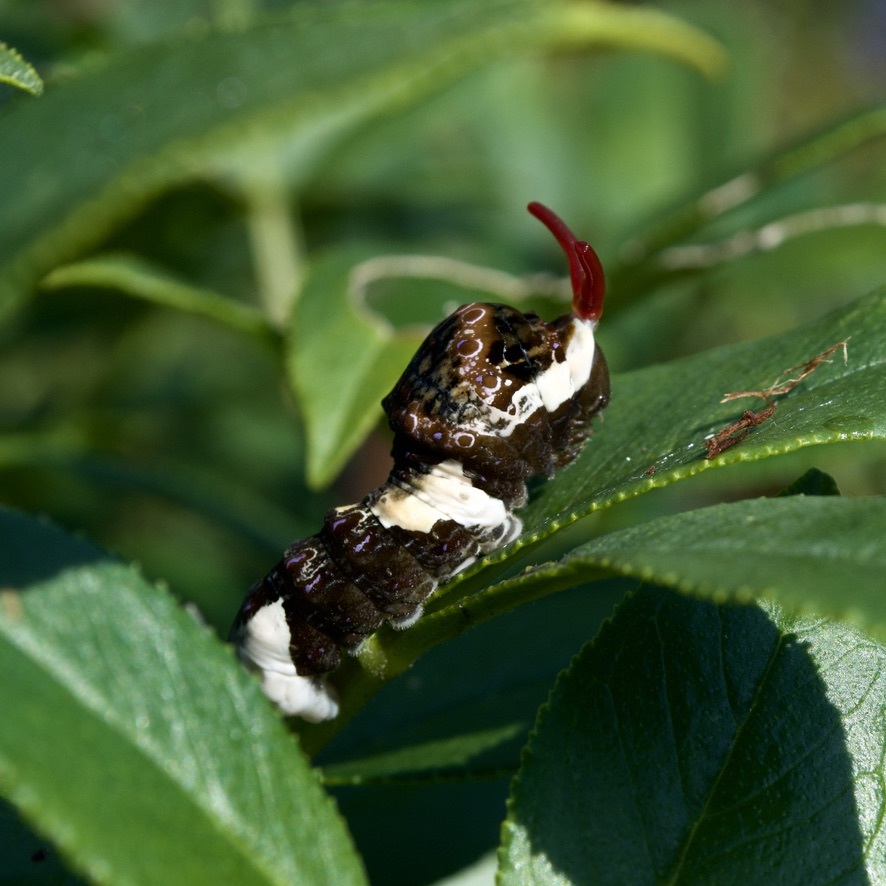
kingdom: Animalia
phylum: Arthropoda
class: Insecta
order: Lepidoptera
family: Papilionidae
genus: Papilio
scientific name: Papilio cresphontes
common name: Giant swallowtail
